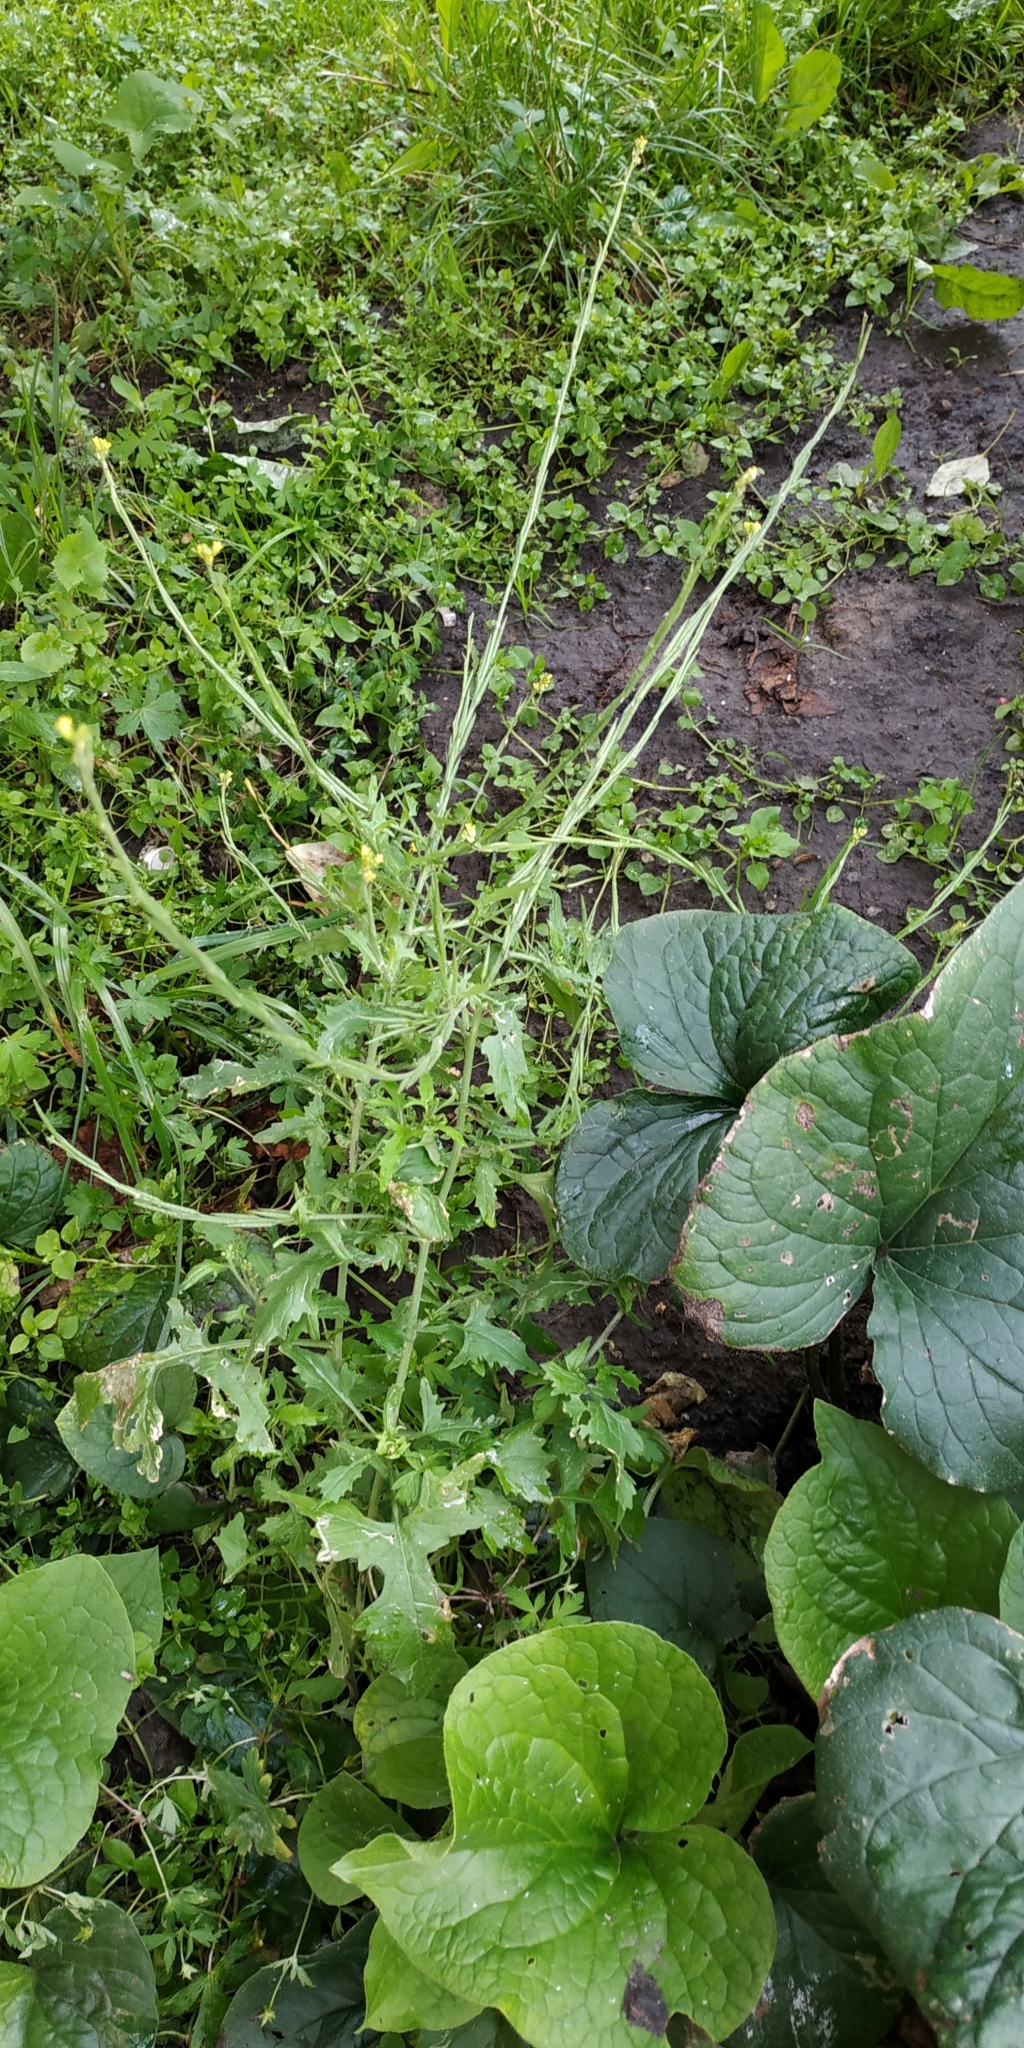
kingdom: Plantae
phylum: Tracheophyta
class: Magnoliopsida
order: Brassicales
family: Brassicaceae
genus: Sisymbrium
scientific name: Sisymbrium officinale
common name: Hedge mustard
